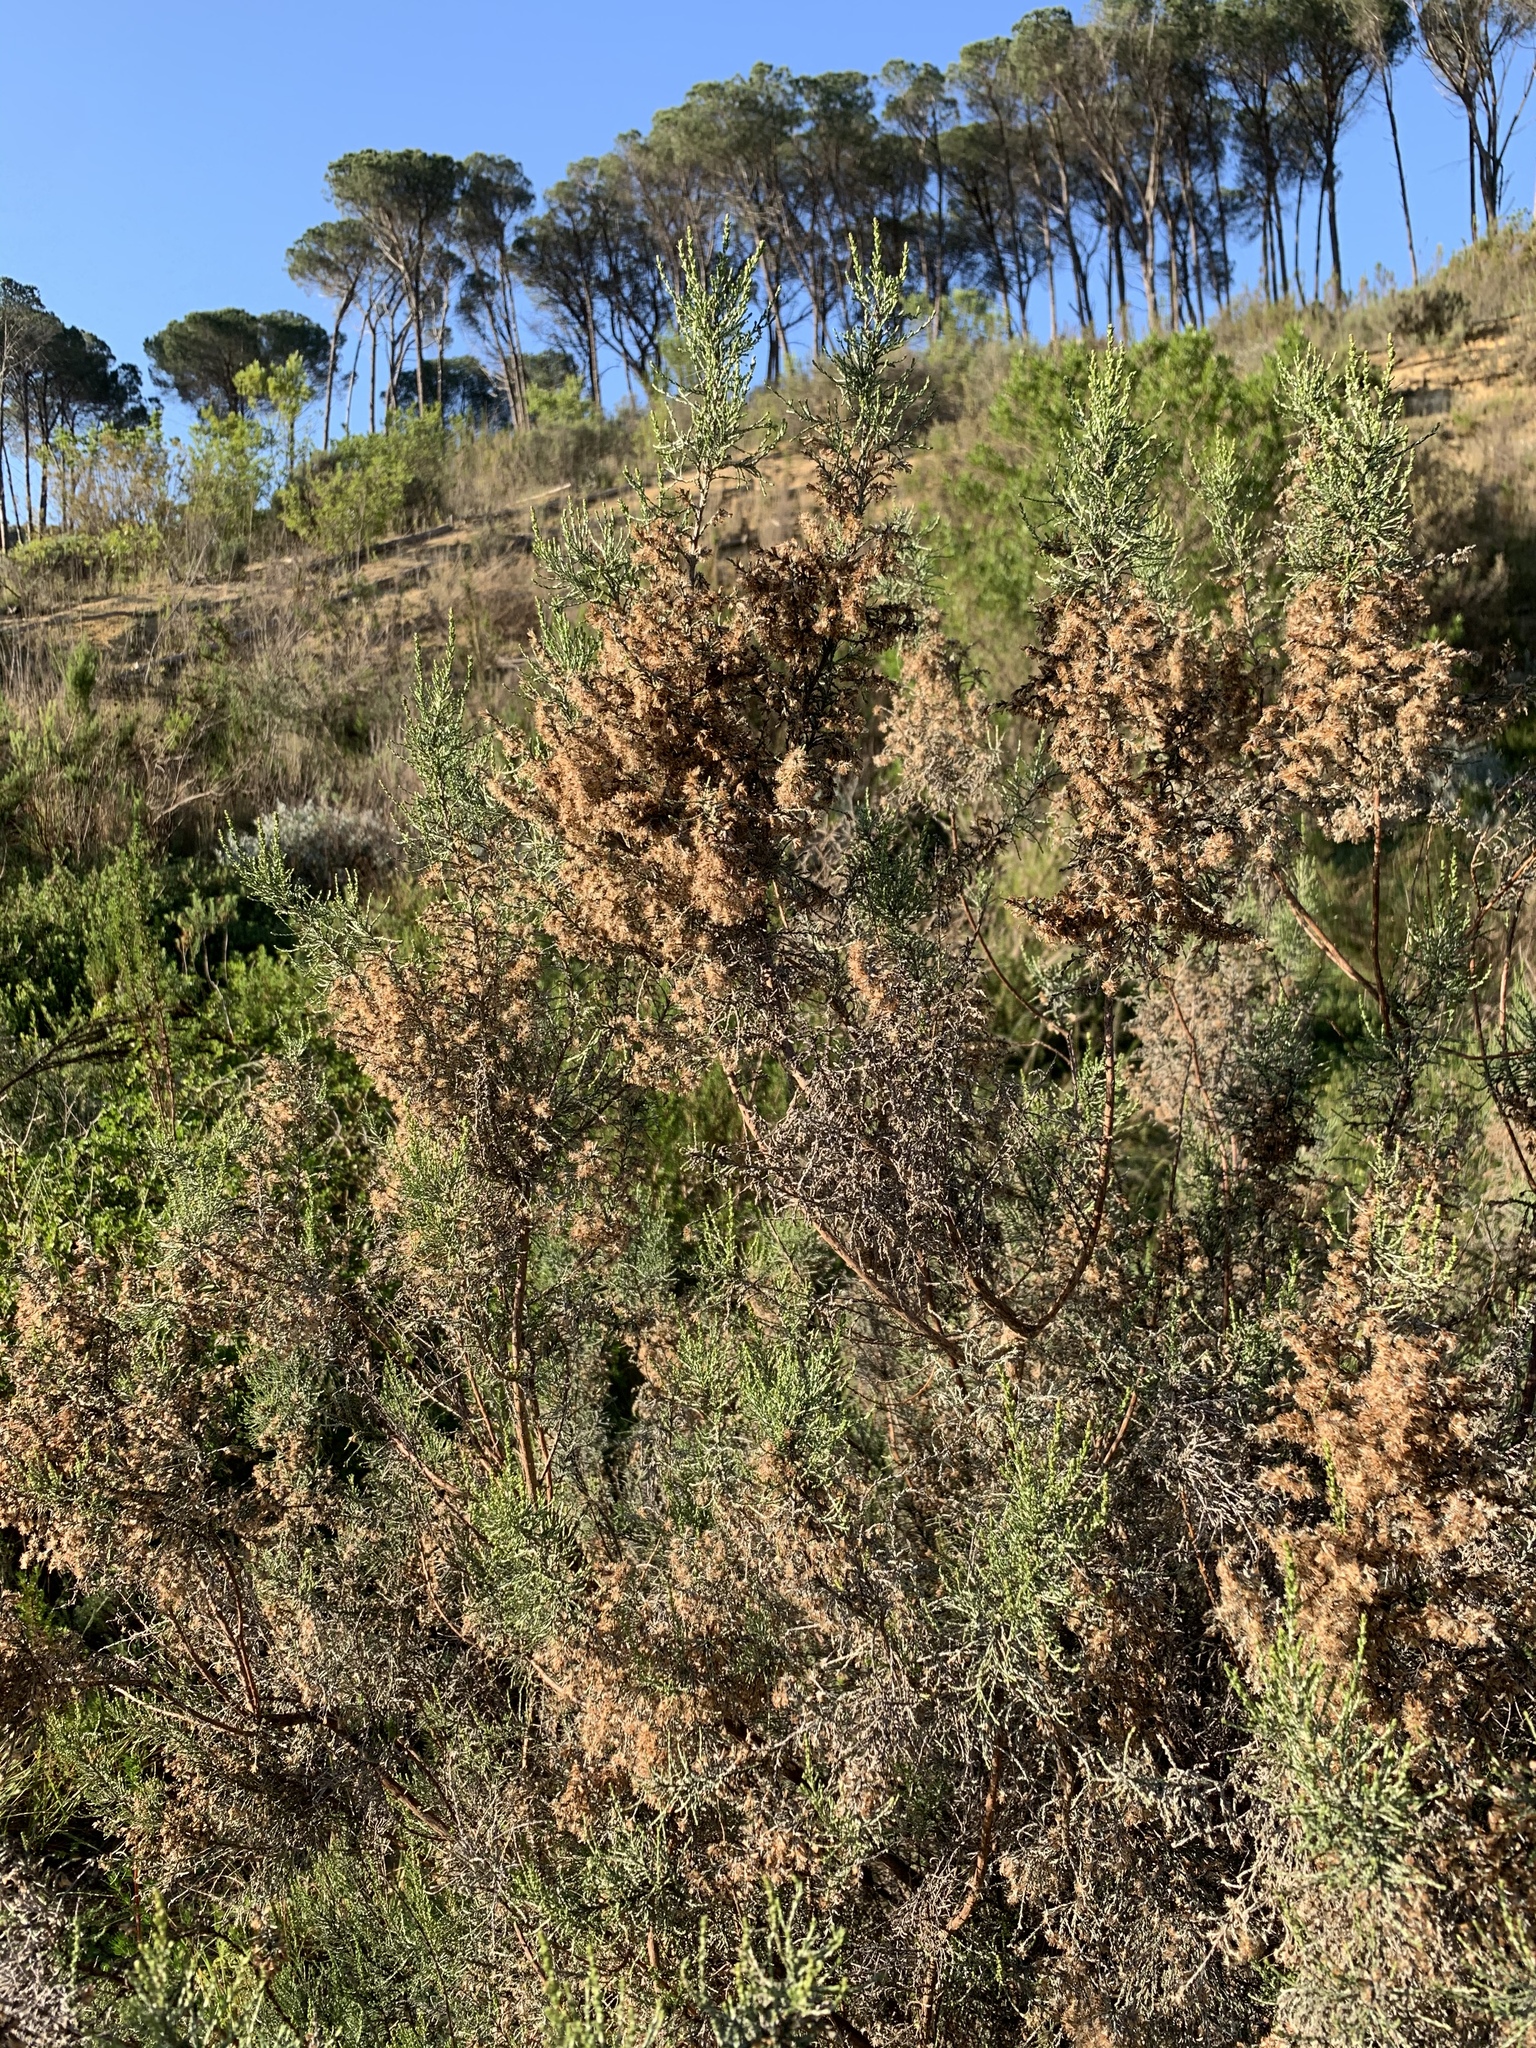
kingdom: Plantae
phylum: Tracheophyta
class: Magnoliopsida
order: Asterales
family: Asteraceae
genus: Dicerothamnus
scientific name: Dicerothamnus rhinocerotis
